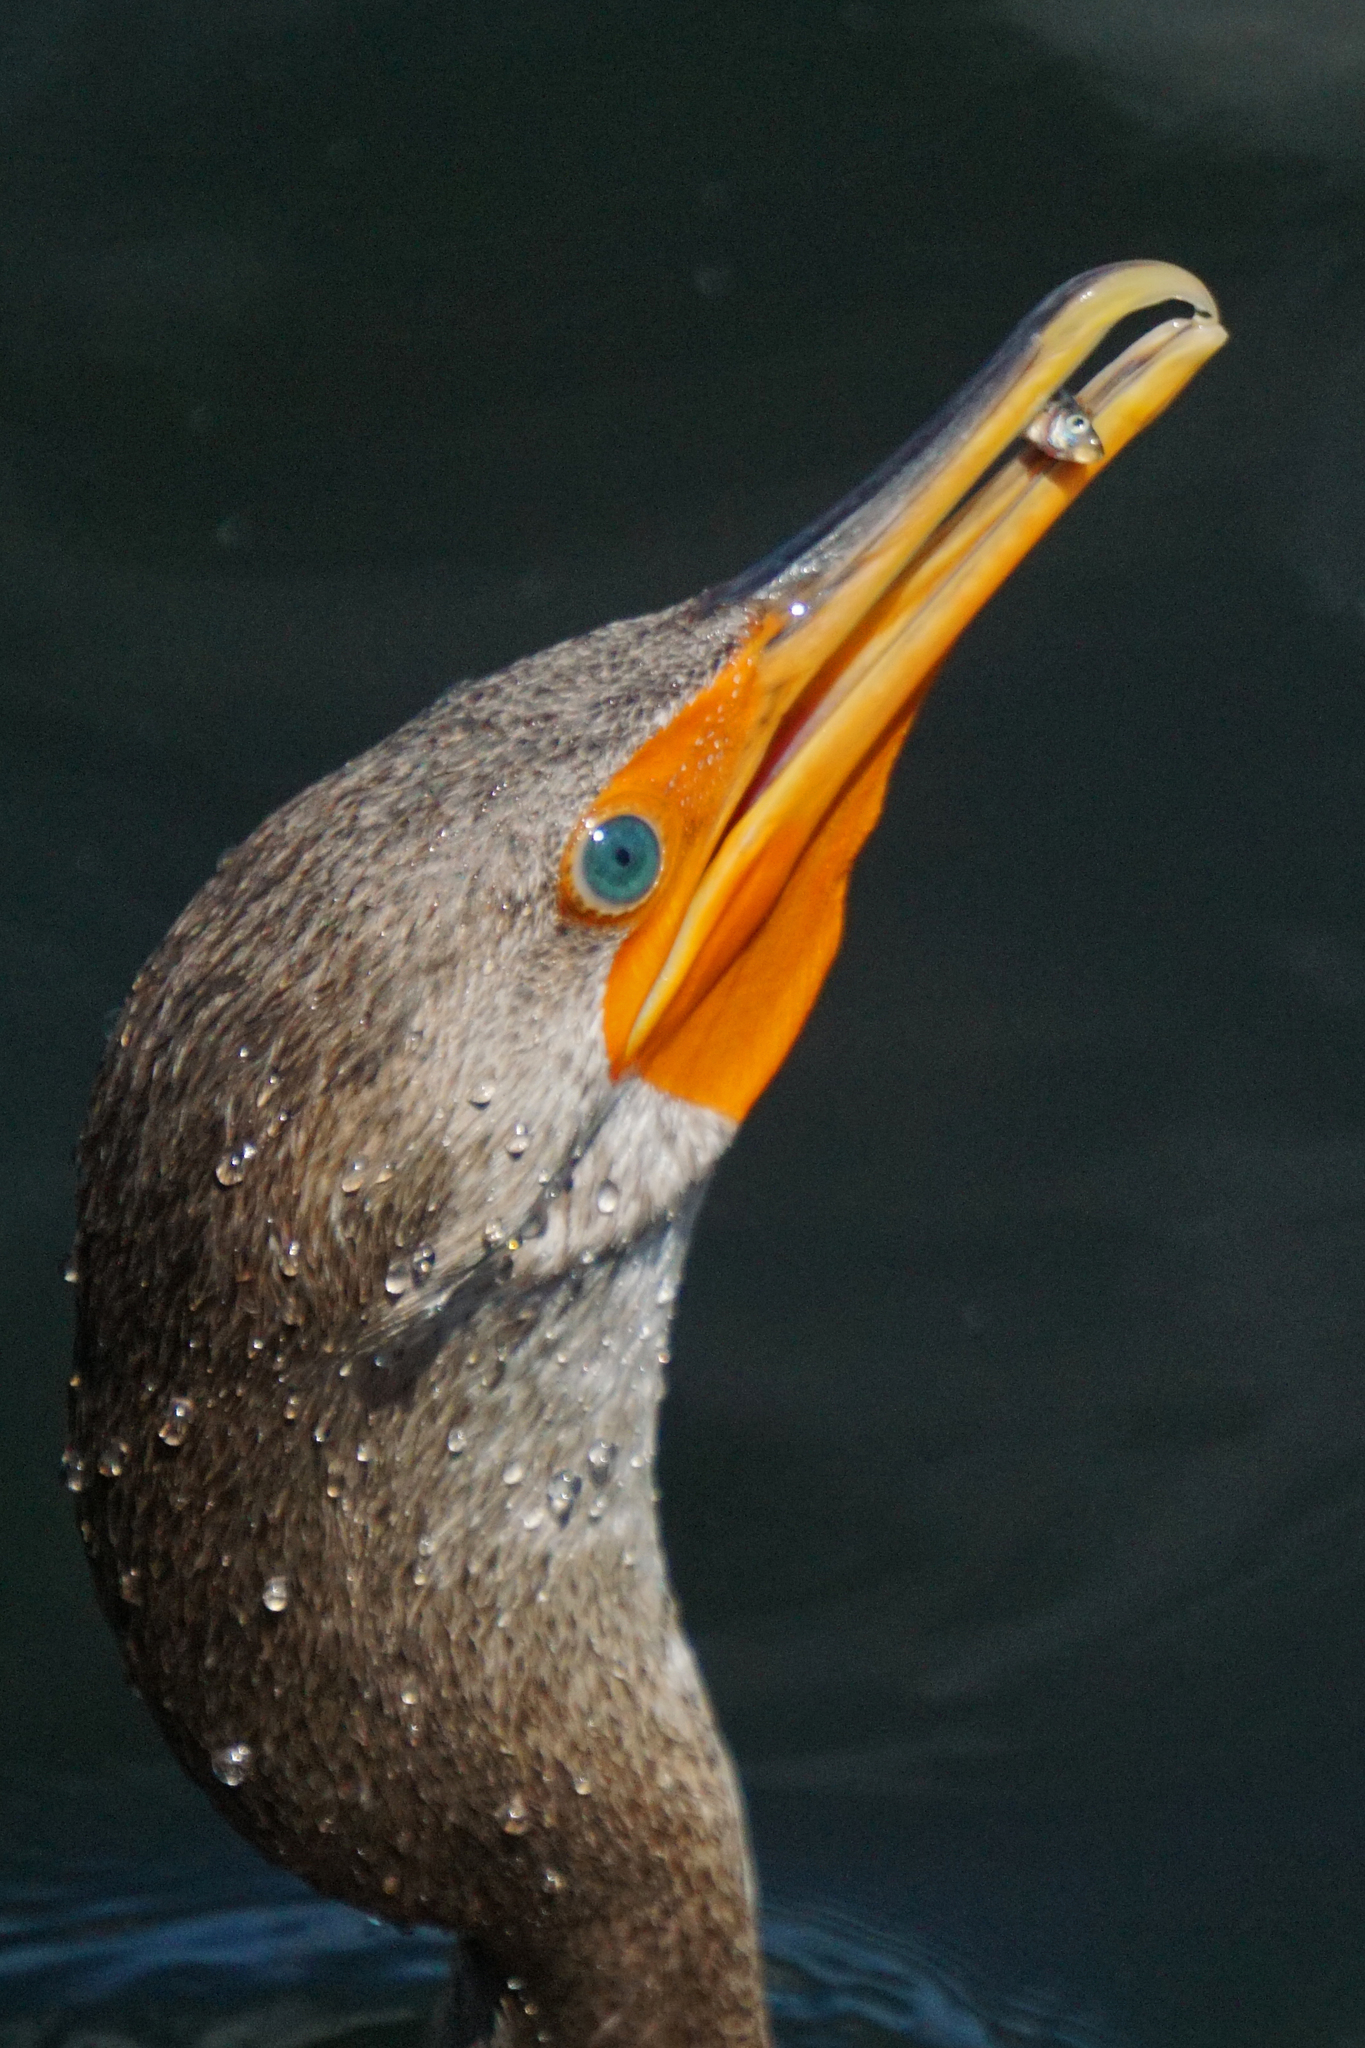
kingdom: Animalia
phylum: Chordata
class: Aves
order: Suliformes
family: Phalacrocoracidae
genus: Phalacrocorax
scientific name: Phalacrocorax auritus
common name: Double-crested cormorant
